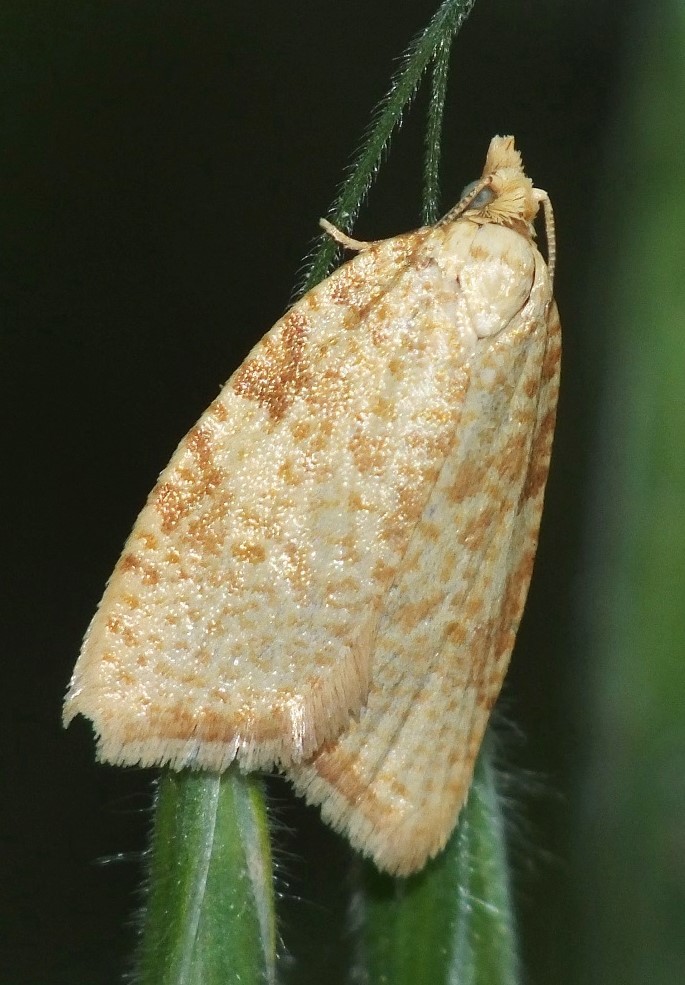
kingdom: Animalia
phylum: Arthropoda
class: Insecta
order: Lepidoptera
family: Tortricidae
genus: Aleimma
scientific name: Aleimma loeflingiana
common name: Yellow oak button
